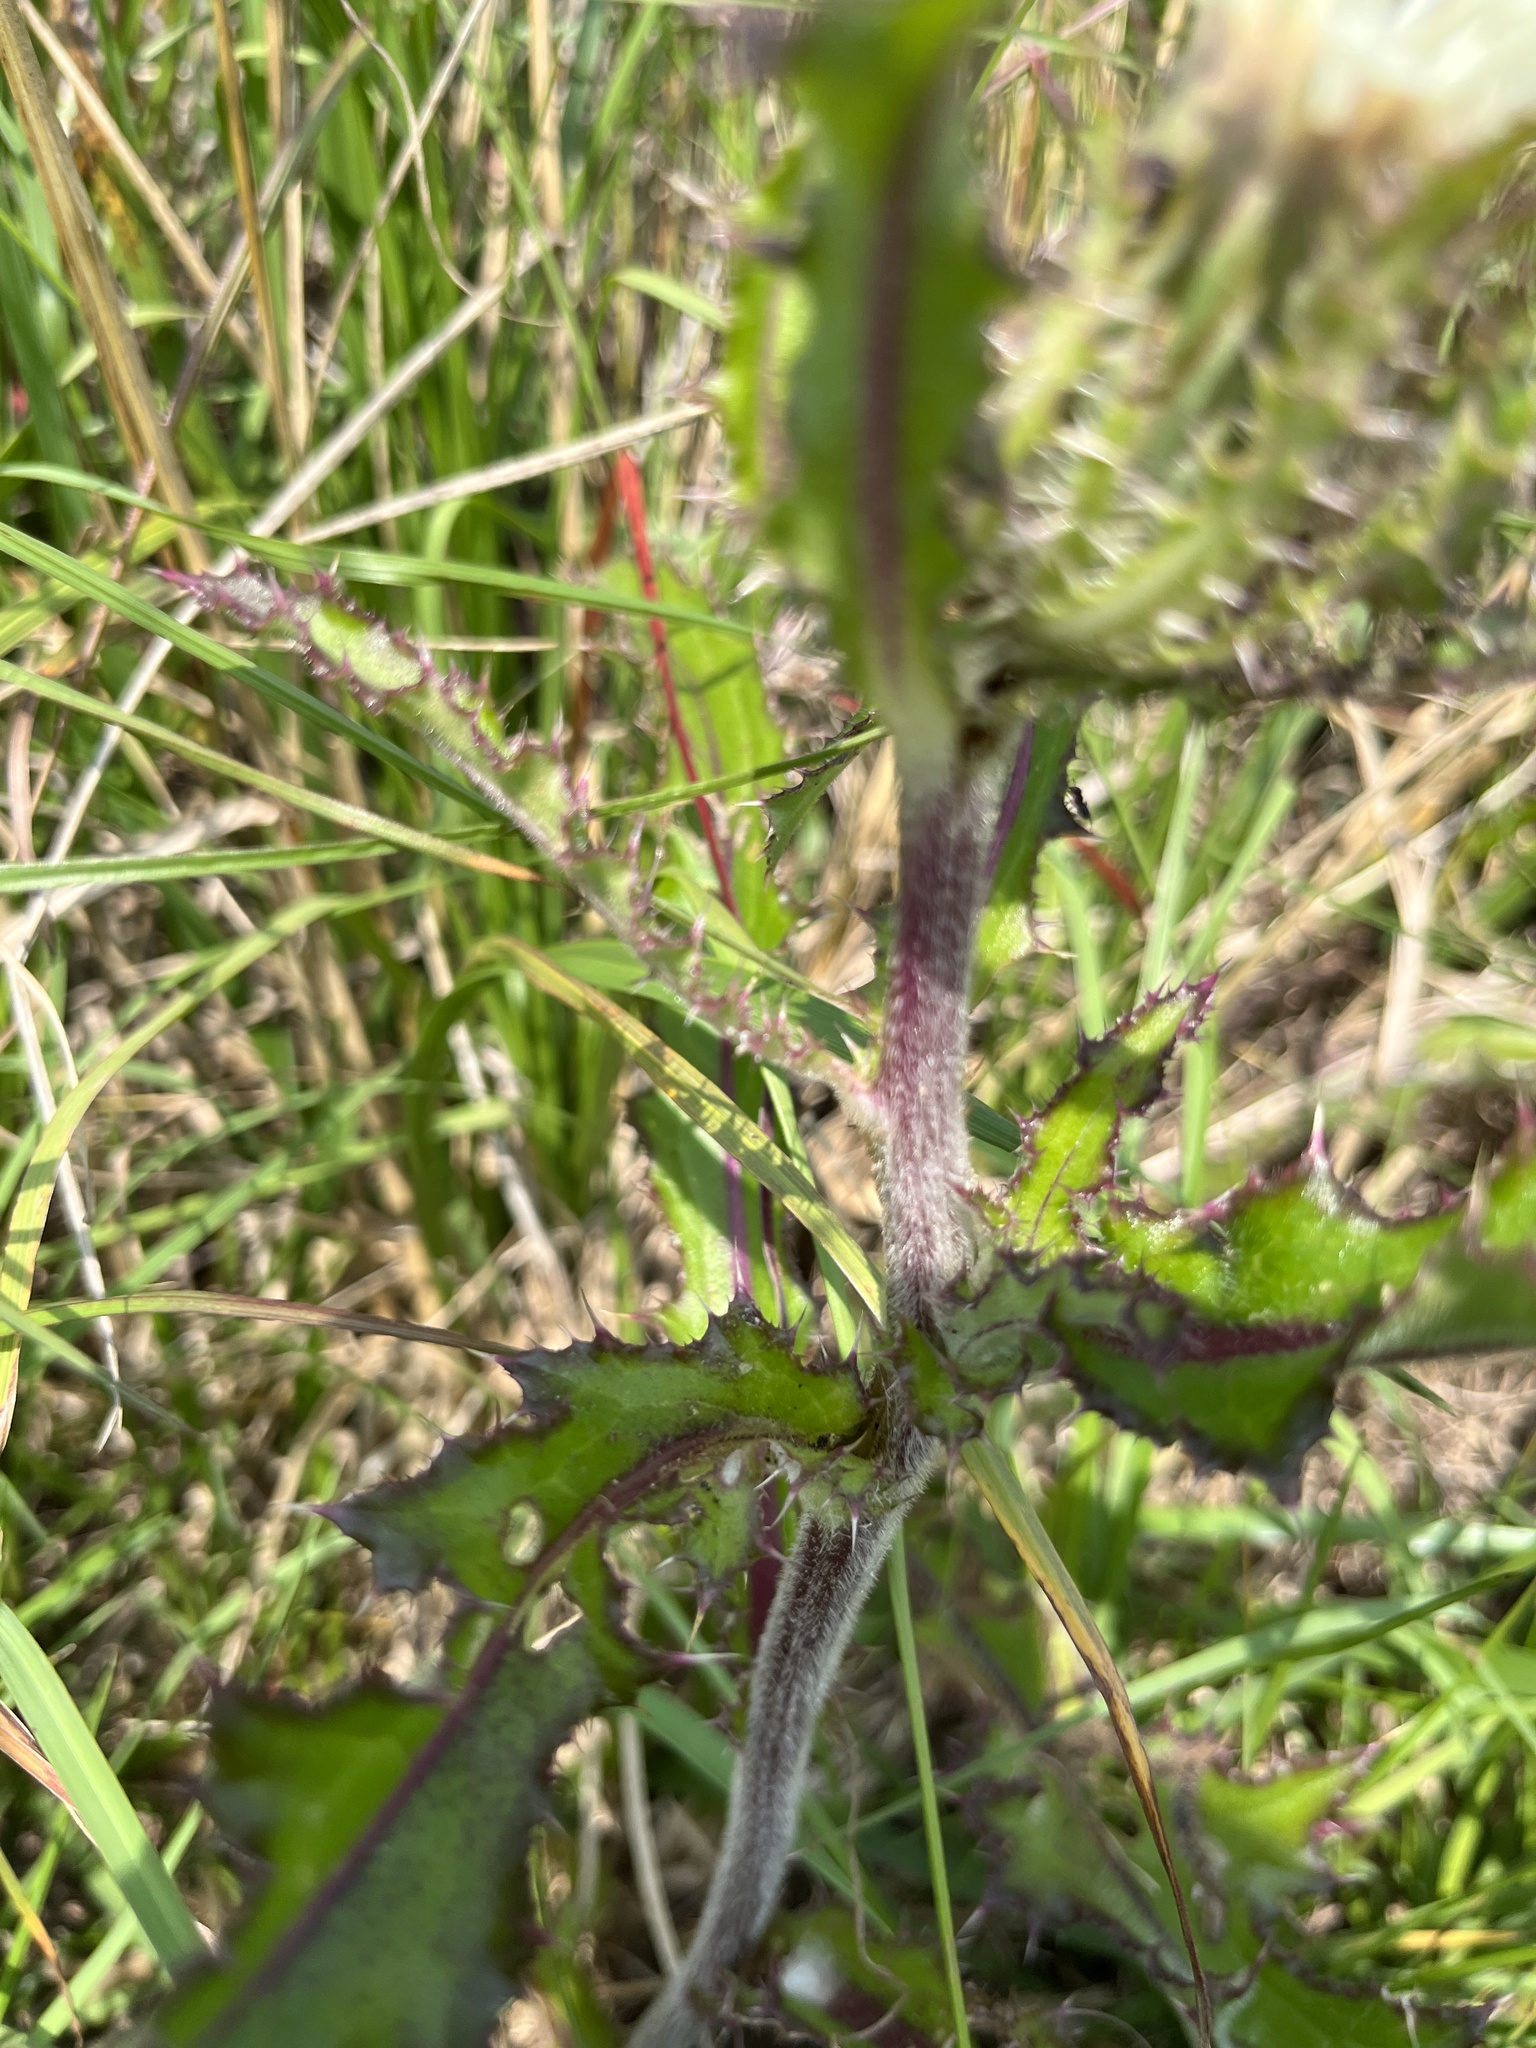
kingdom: Plantae
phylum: Tracheophyta
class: Magnoliopsida
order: Asterales
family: Asteraceae
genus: Cirsium
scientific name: Cirsium horridulum
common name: Bristly thistle
